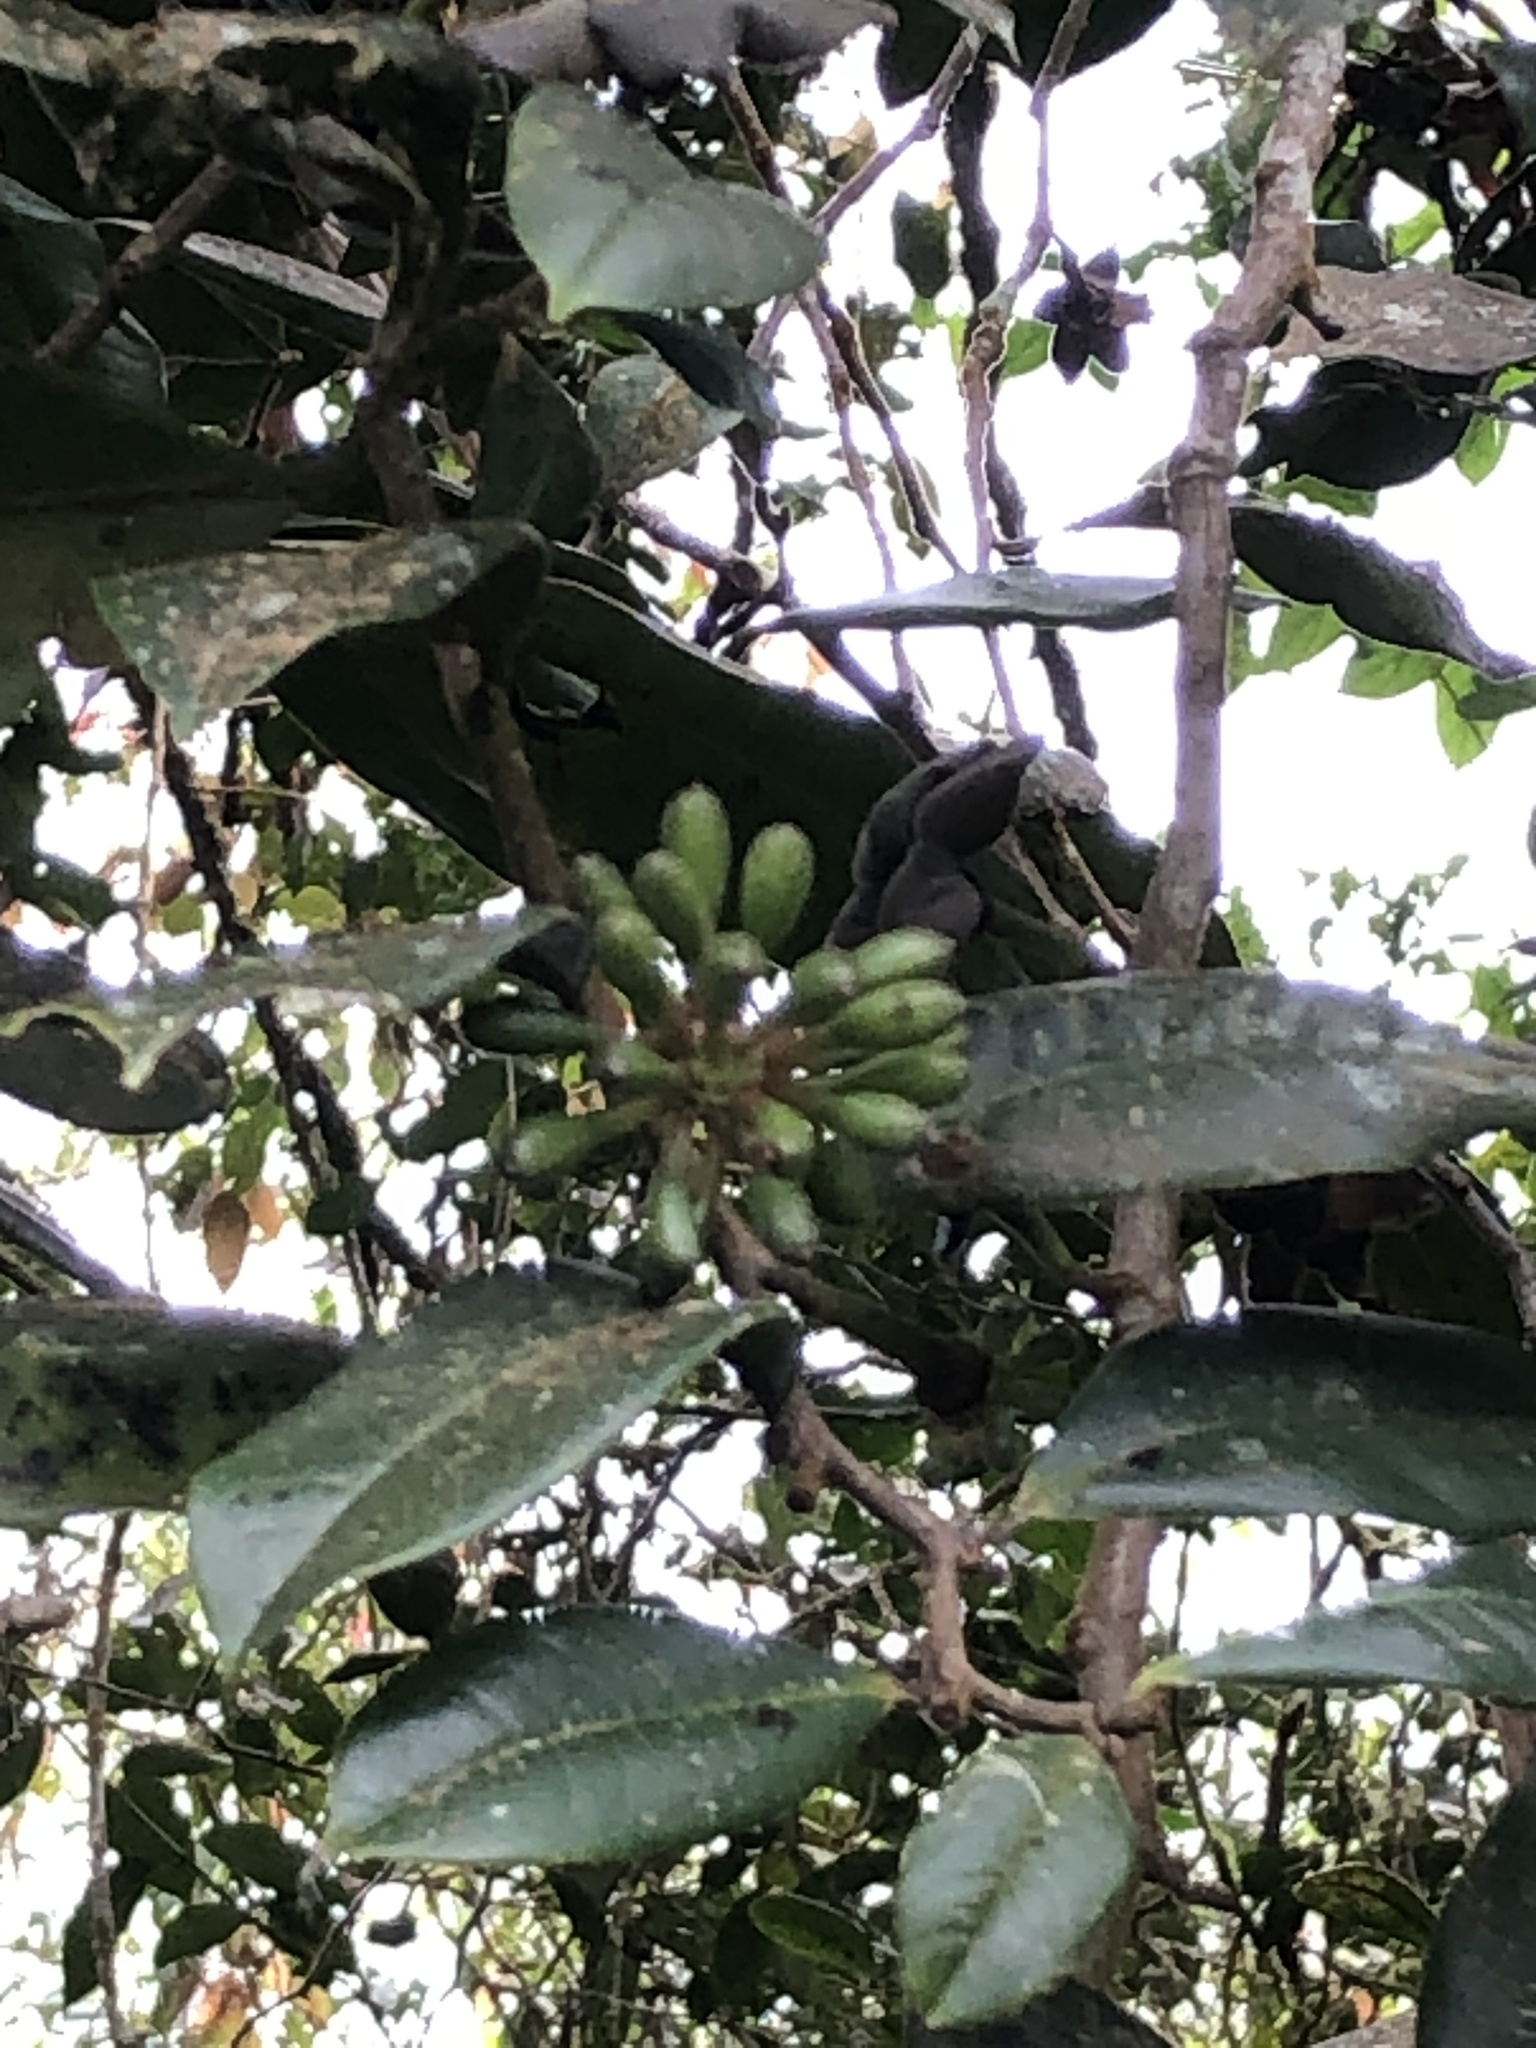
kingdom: Plantae
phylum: Tracheophyta
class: Magnoliopsida
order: Magnoliales
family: Annonaceae
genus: Guatteria
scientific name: Guatteria goudotiana
